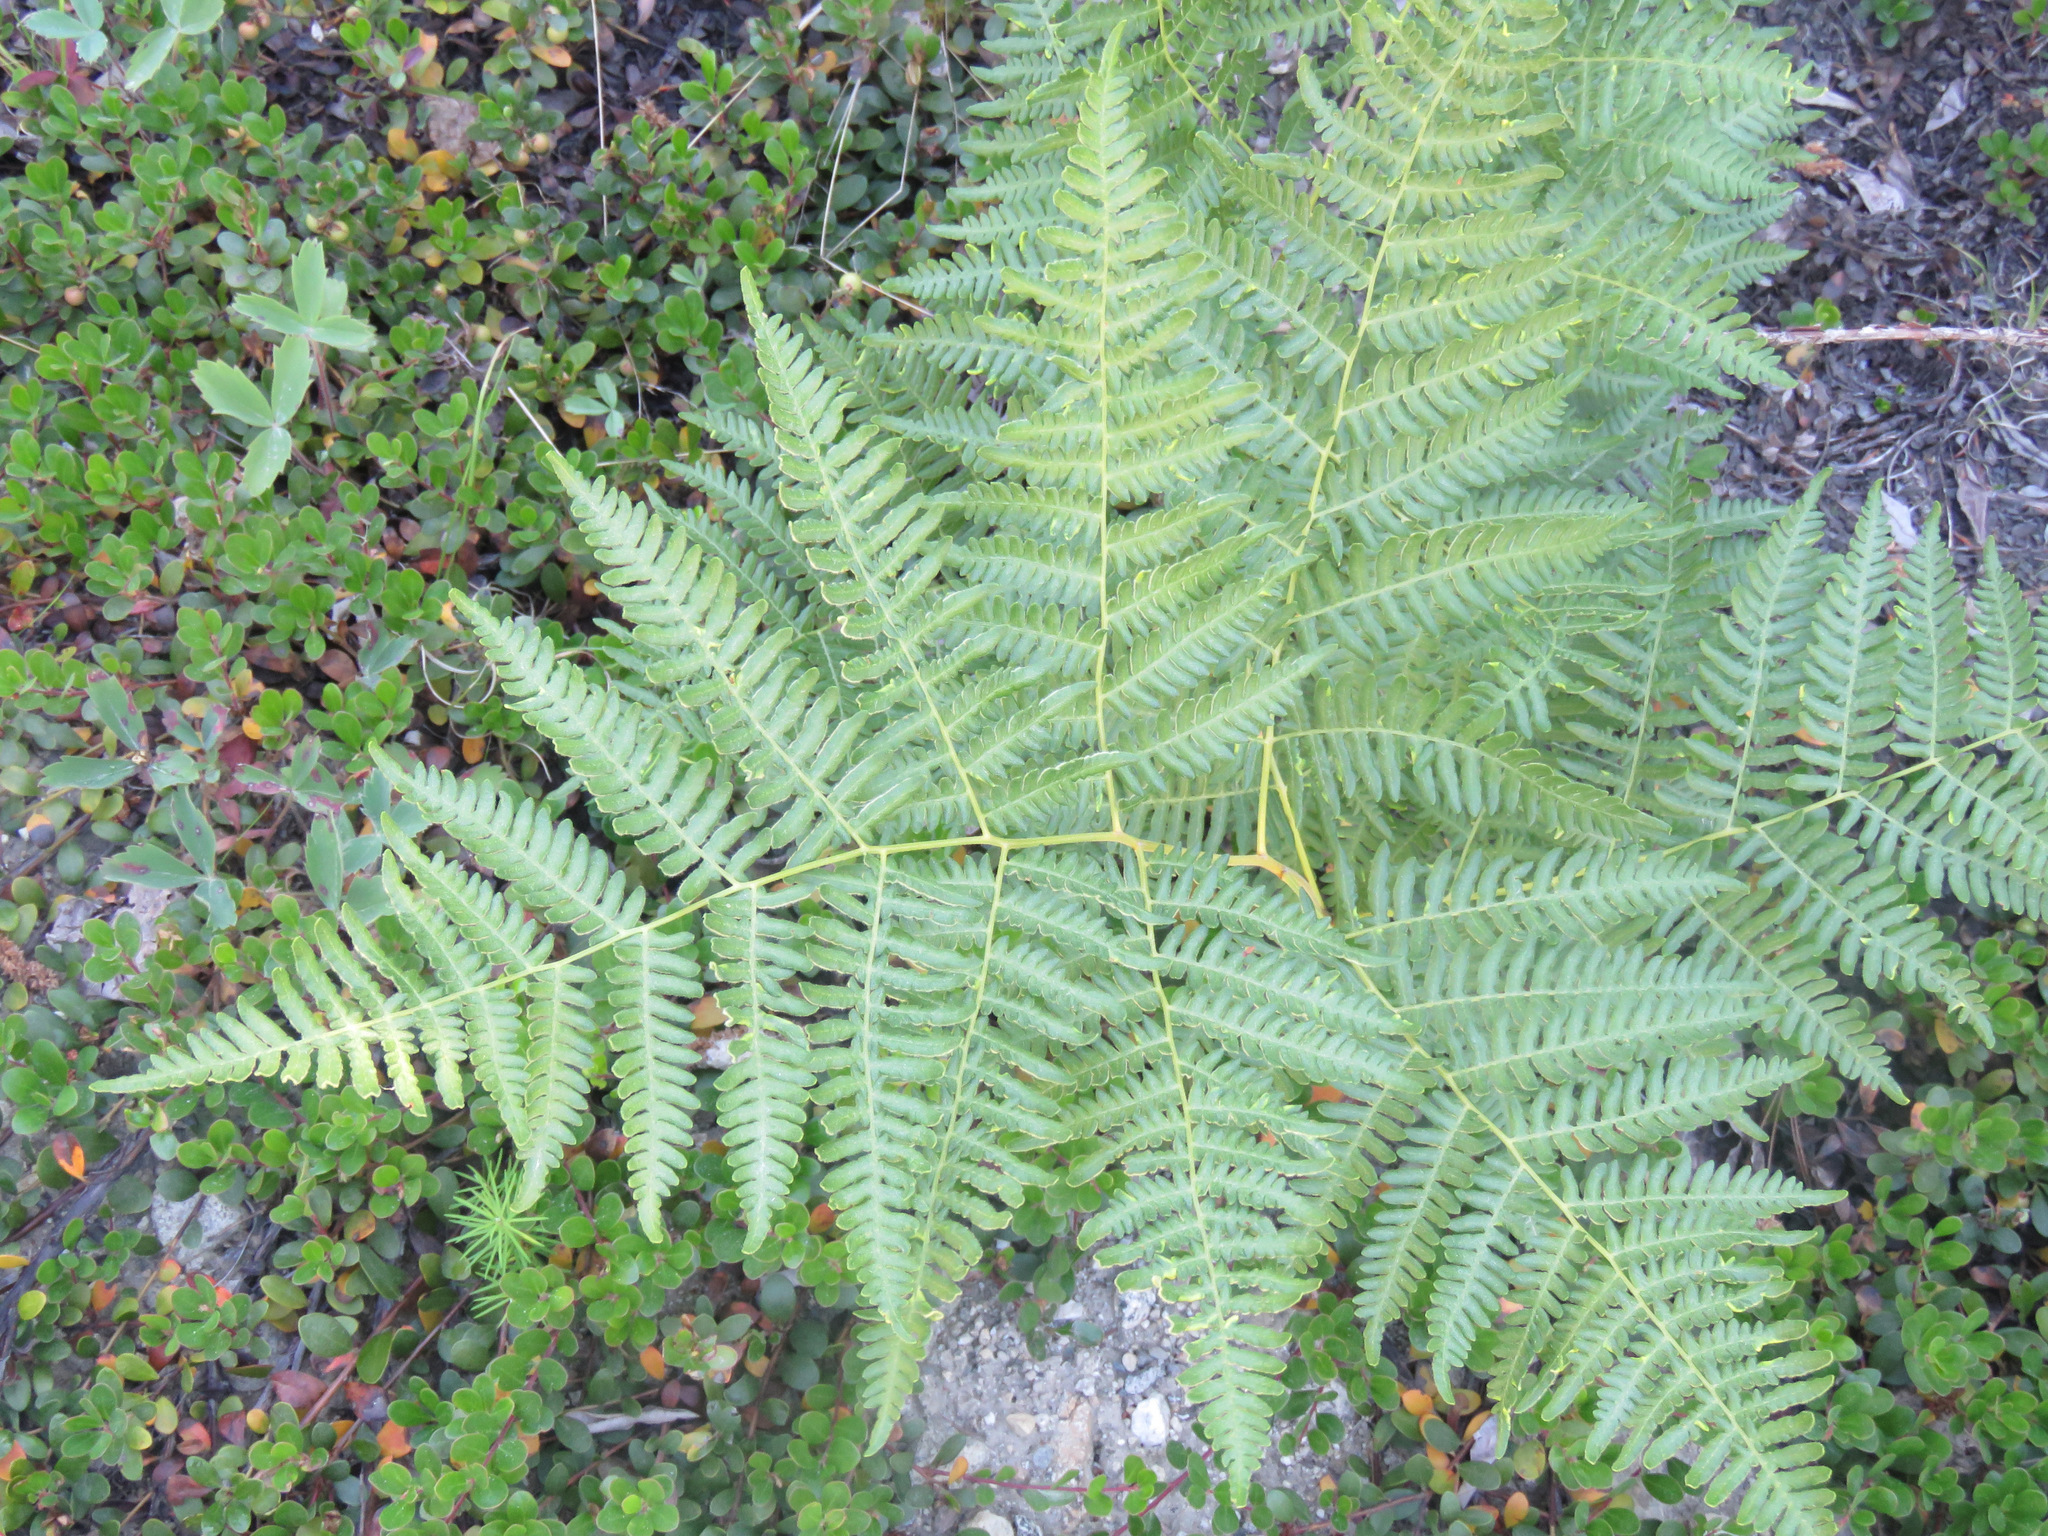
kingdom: Plantae
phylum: Tracheophyta
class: Polypodiopsida
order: Polypodiales
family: Dennstaedtiaceae
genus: Pteridium
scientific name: Pteridium aquilinum
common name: Bracken
